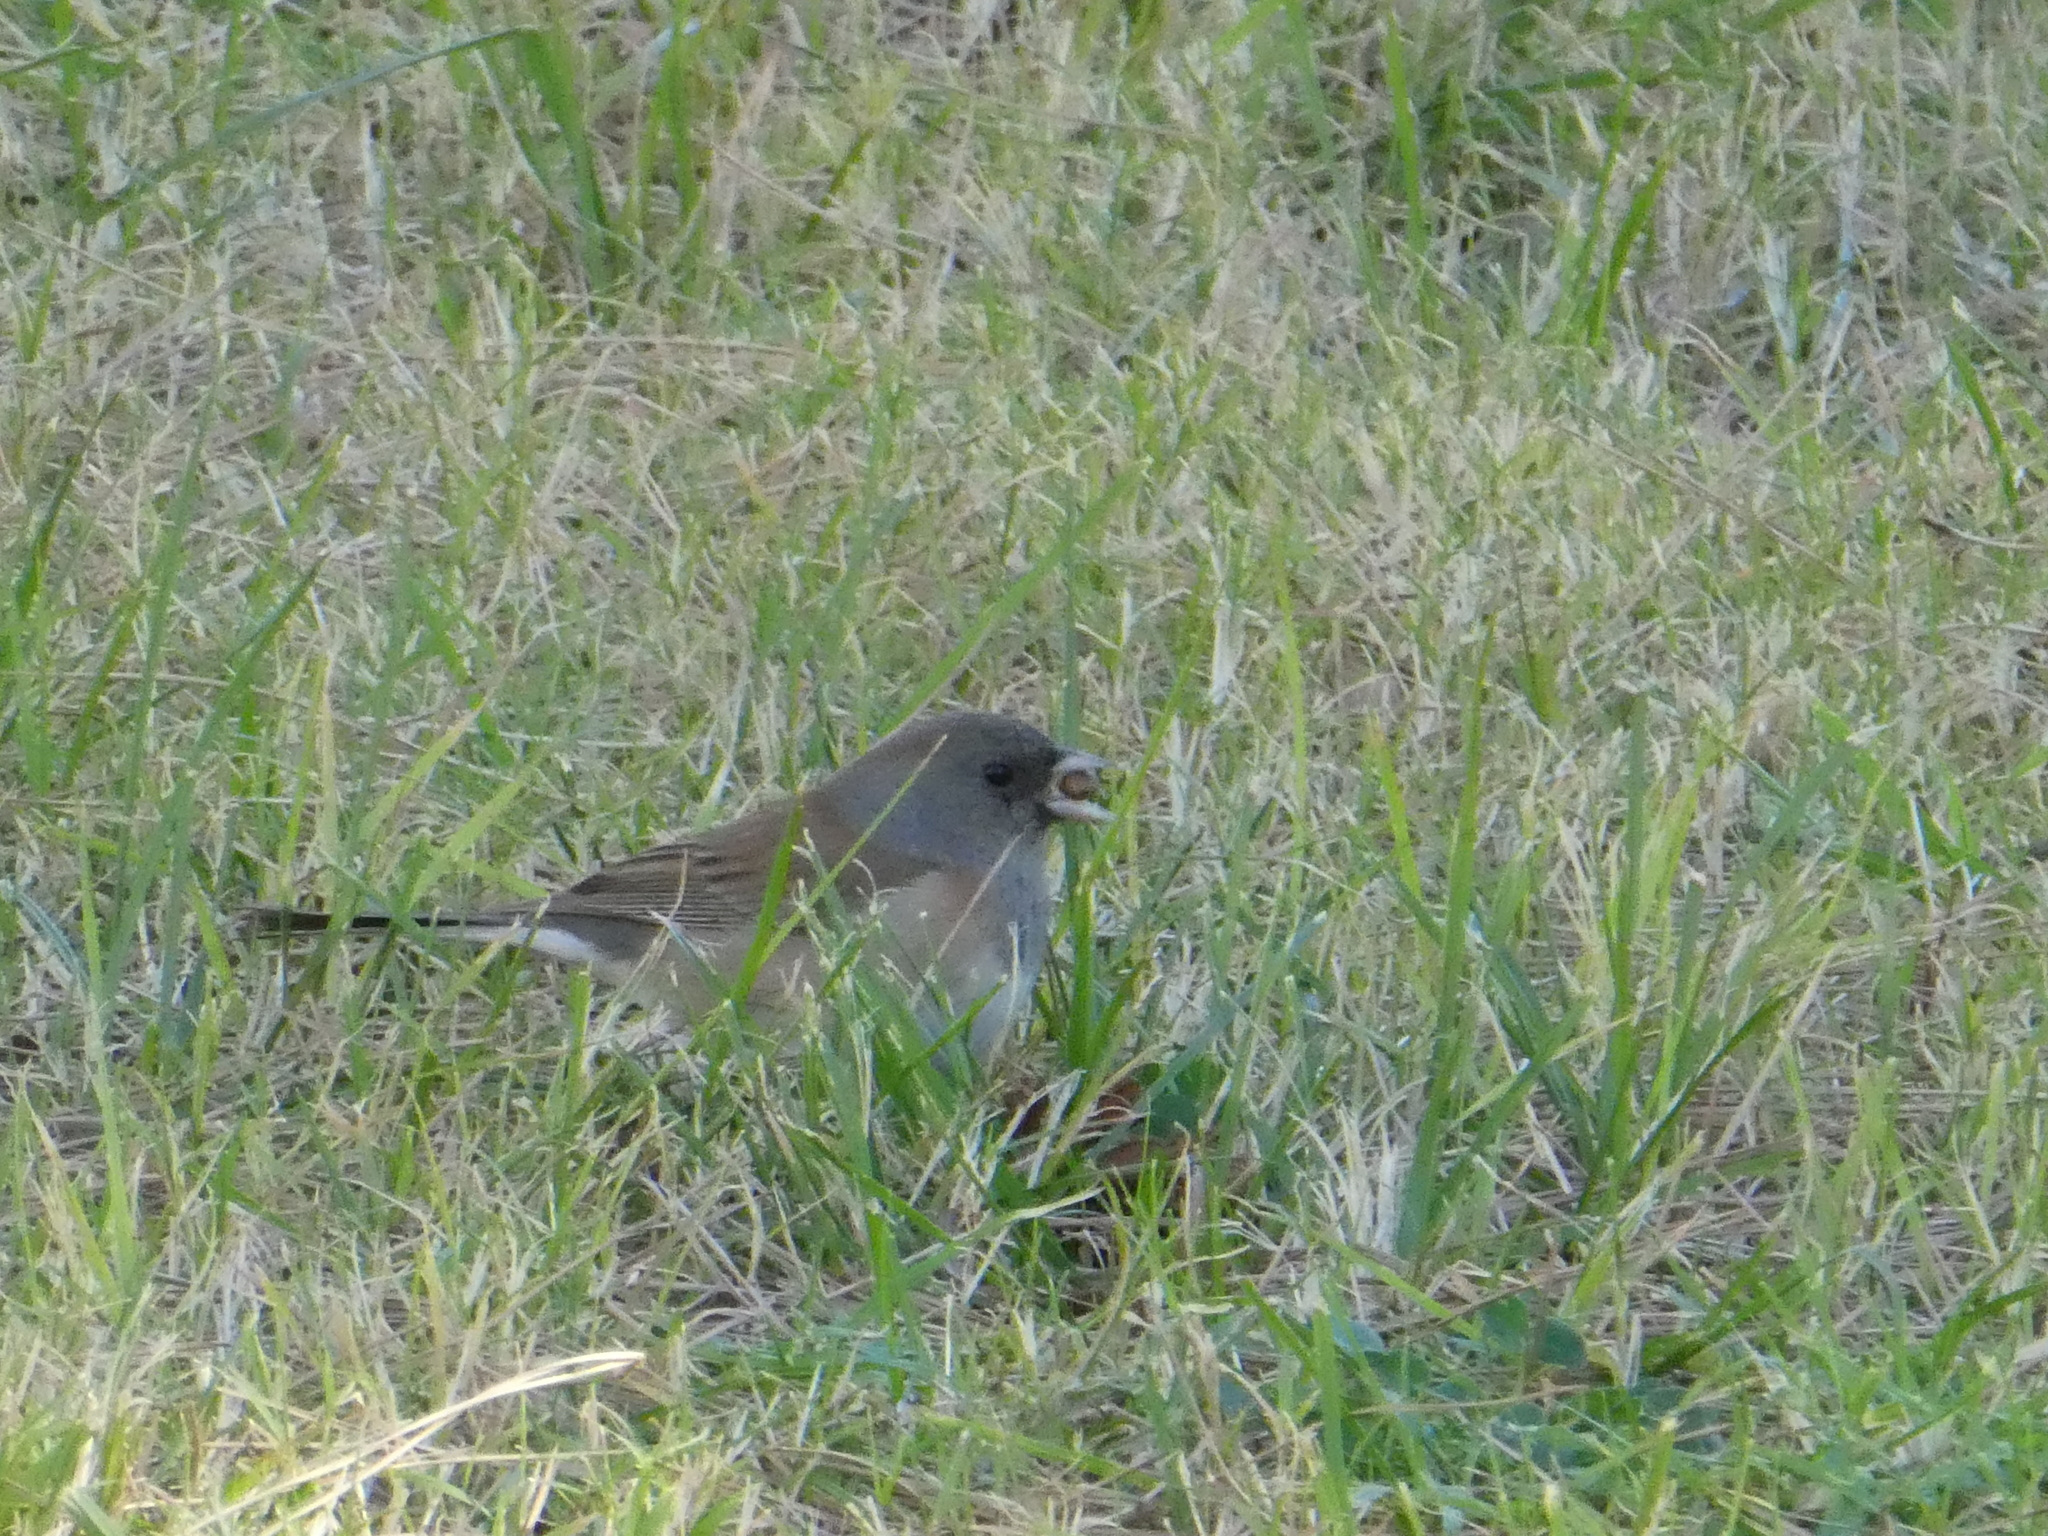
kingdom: Animalia
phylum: Chordata
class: Aves
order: Passeriformes
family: Passerellidae
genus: Junco
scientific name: Junco hyemalis
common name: Dark-eyed junco
